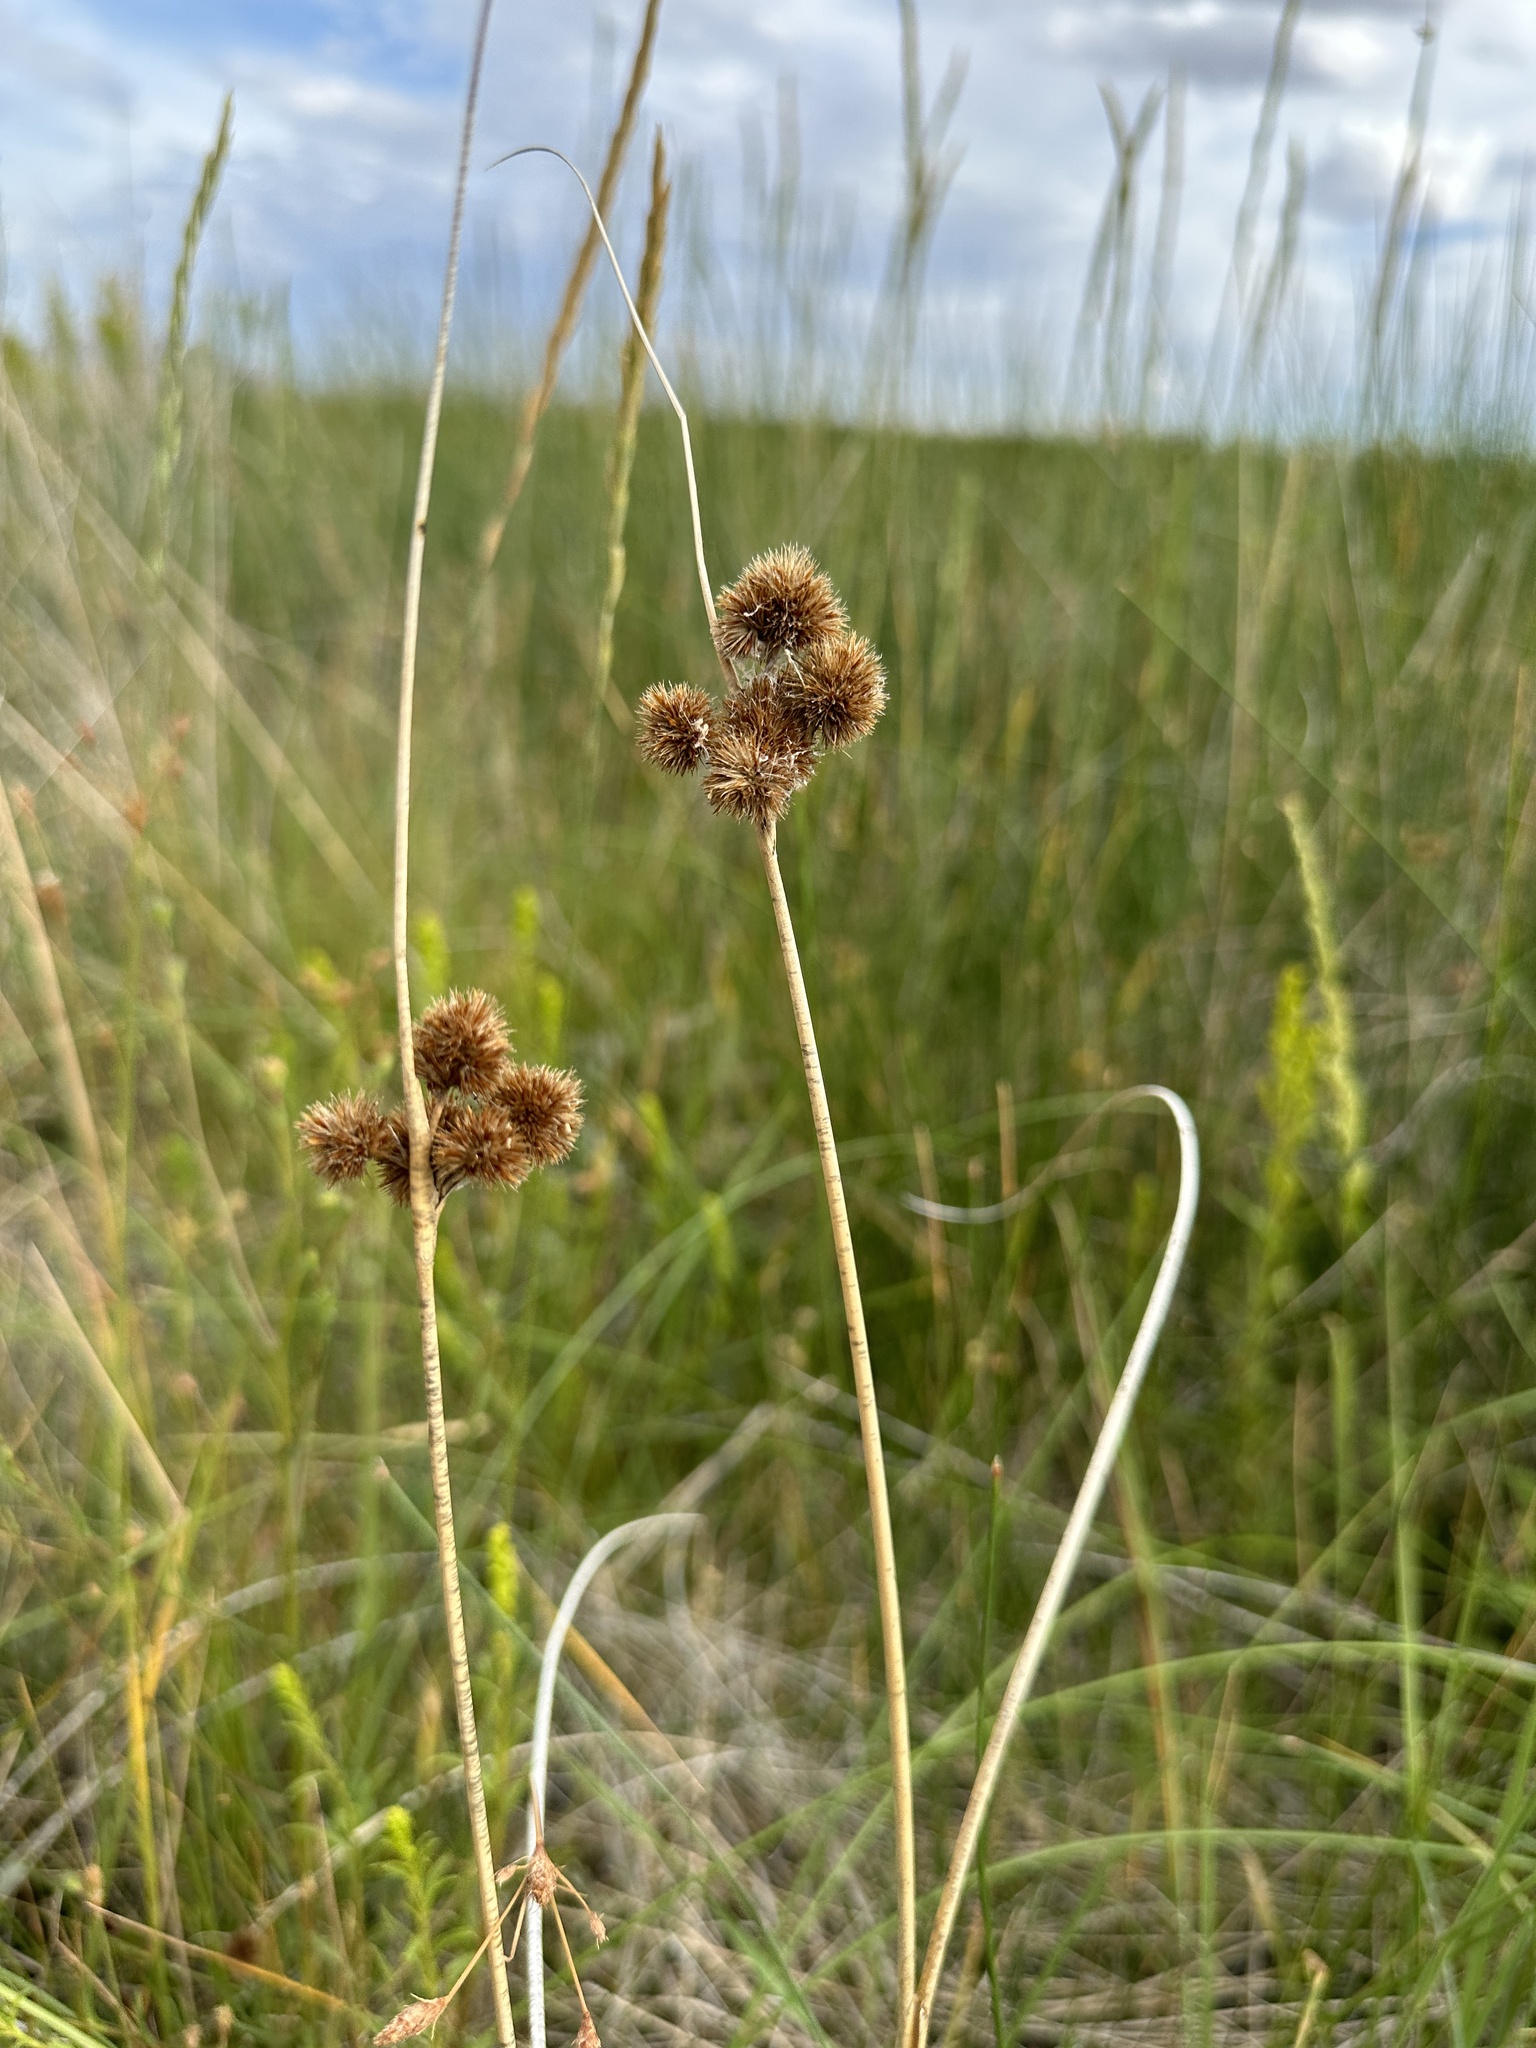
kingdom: Plantae
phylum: Tracheophyta
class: Liliopsida
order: Poales
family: Juncaceae
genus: Juncus
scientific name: Juncus torreyi
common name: Torrey's rush
